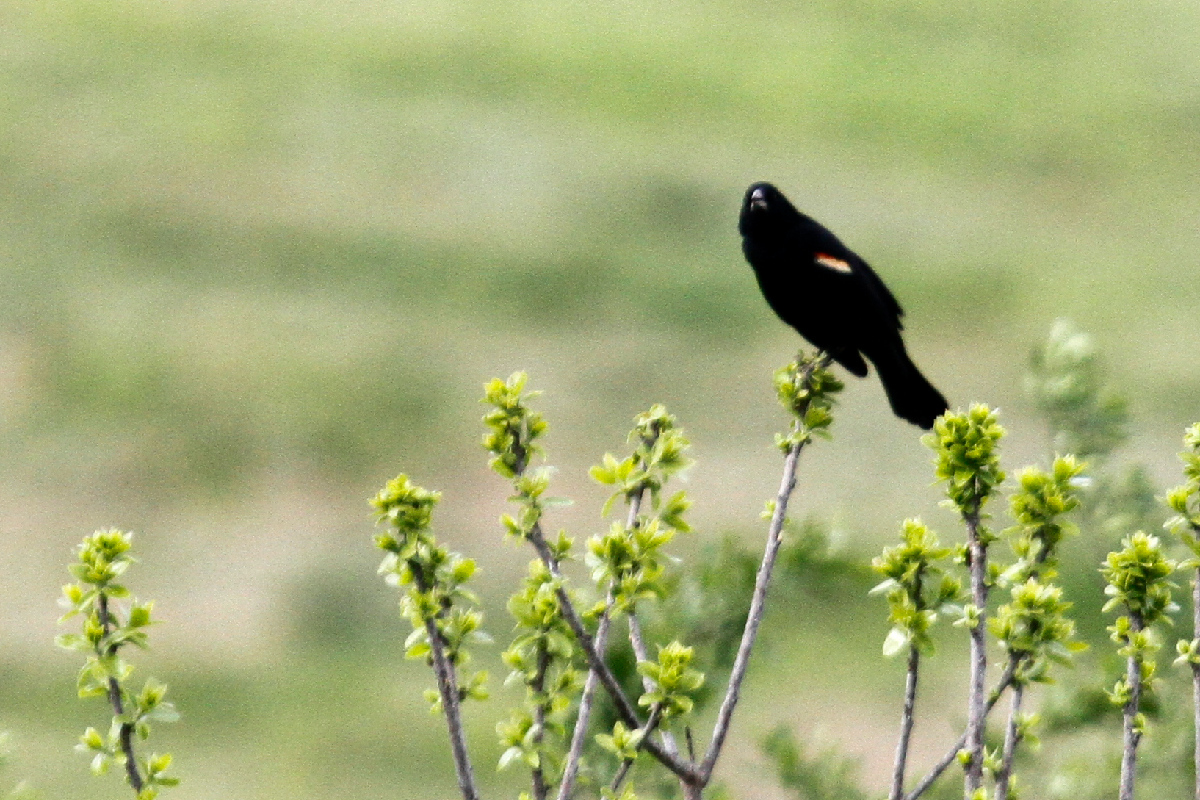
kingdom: Animalia
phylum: Chordata
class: Aves
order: Passeriformes
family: Icteridae
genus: Agelaius
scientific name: Agelaius phoeniceus
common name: Red-winged blackbird
